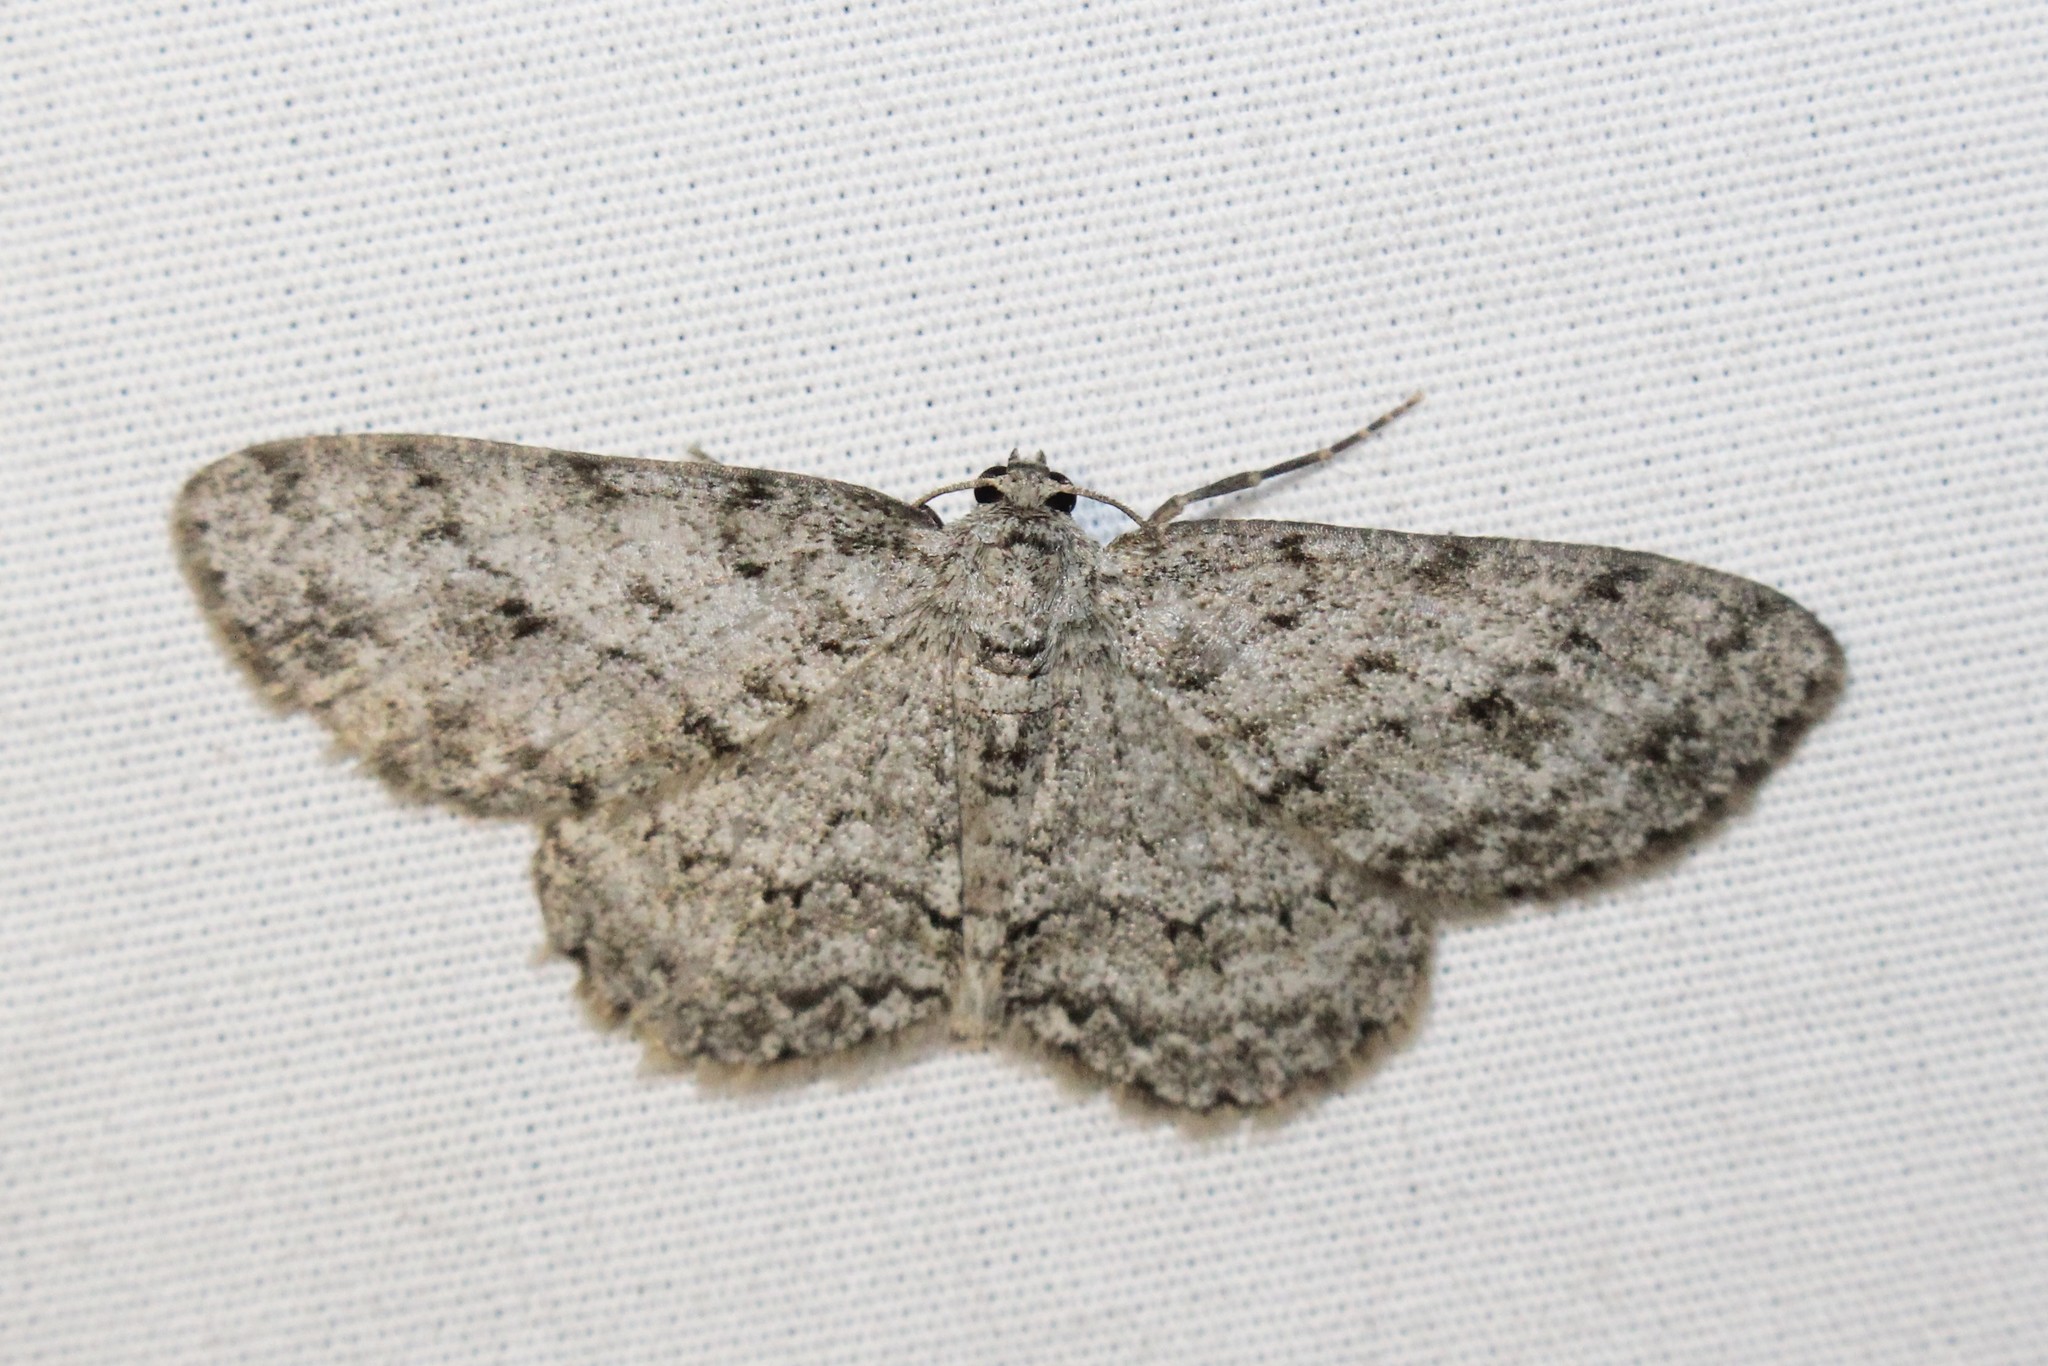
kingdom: Animalia
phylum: Arthropoda
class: Insecta
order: Lepidoptera
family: Geometridae
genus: Ectropis
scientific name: Ectropis crepuscularia
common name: Engrailed
